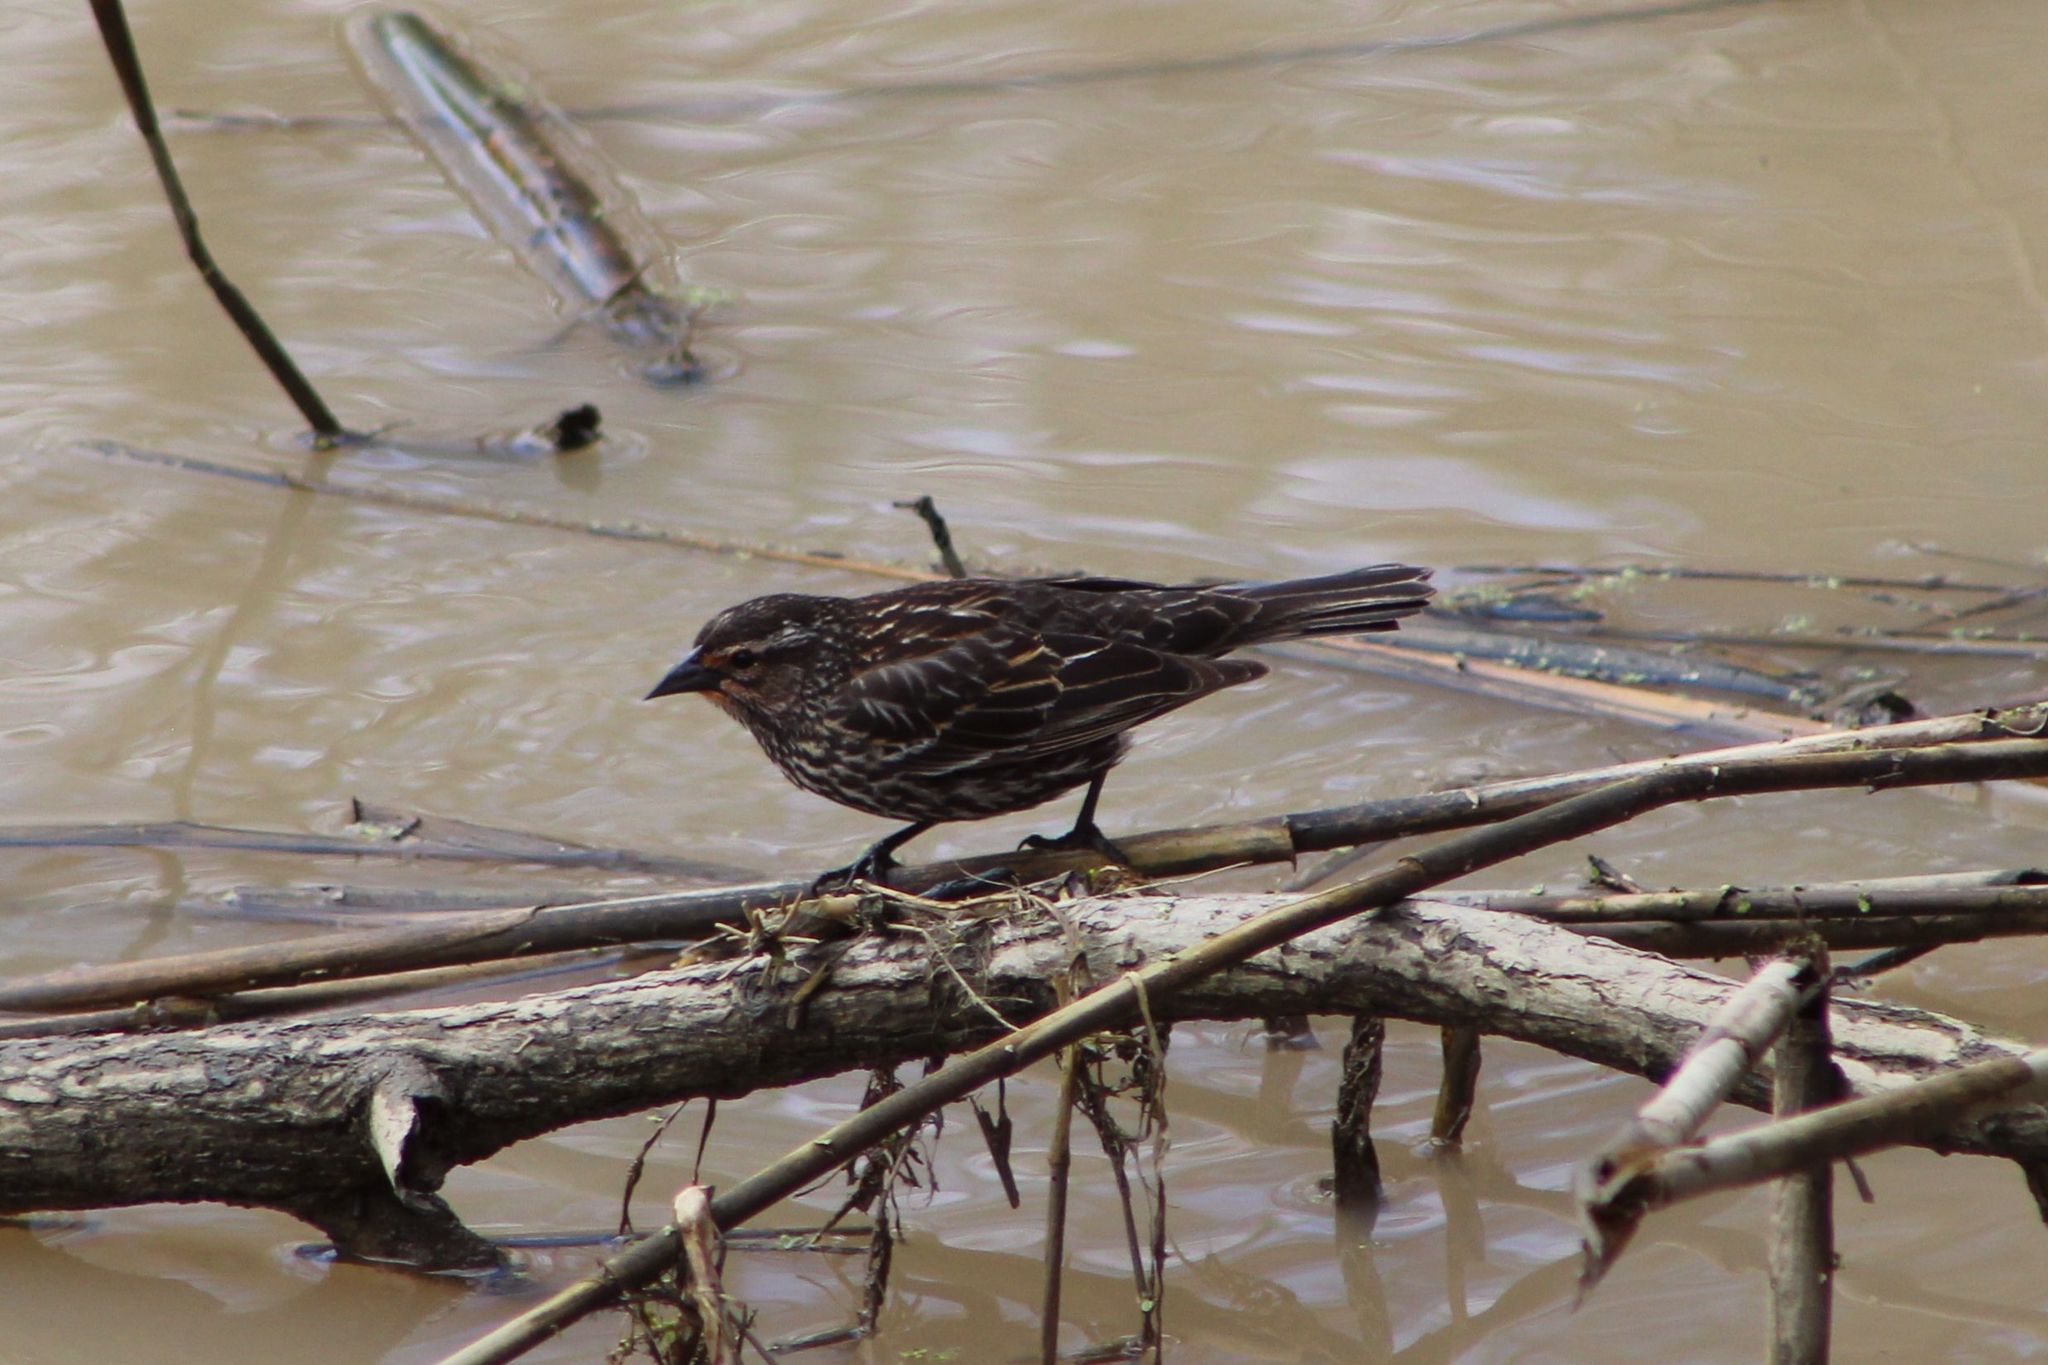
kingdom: Animalia
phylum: Chordata
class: Aves
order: Passeriformes
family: Icteridae
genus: Agelaius
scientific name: Agelaius phoeniceus
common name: Red-winged blackbird
